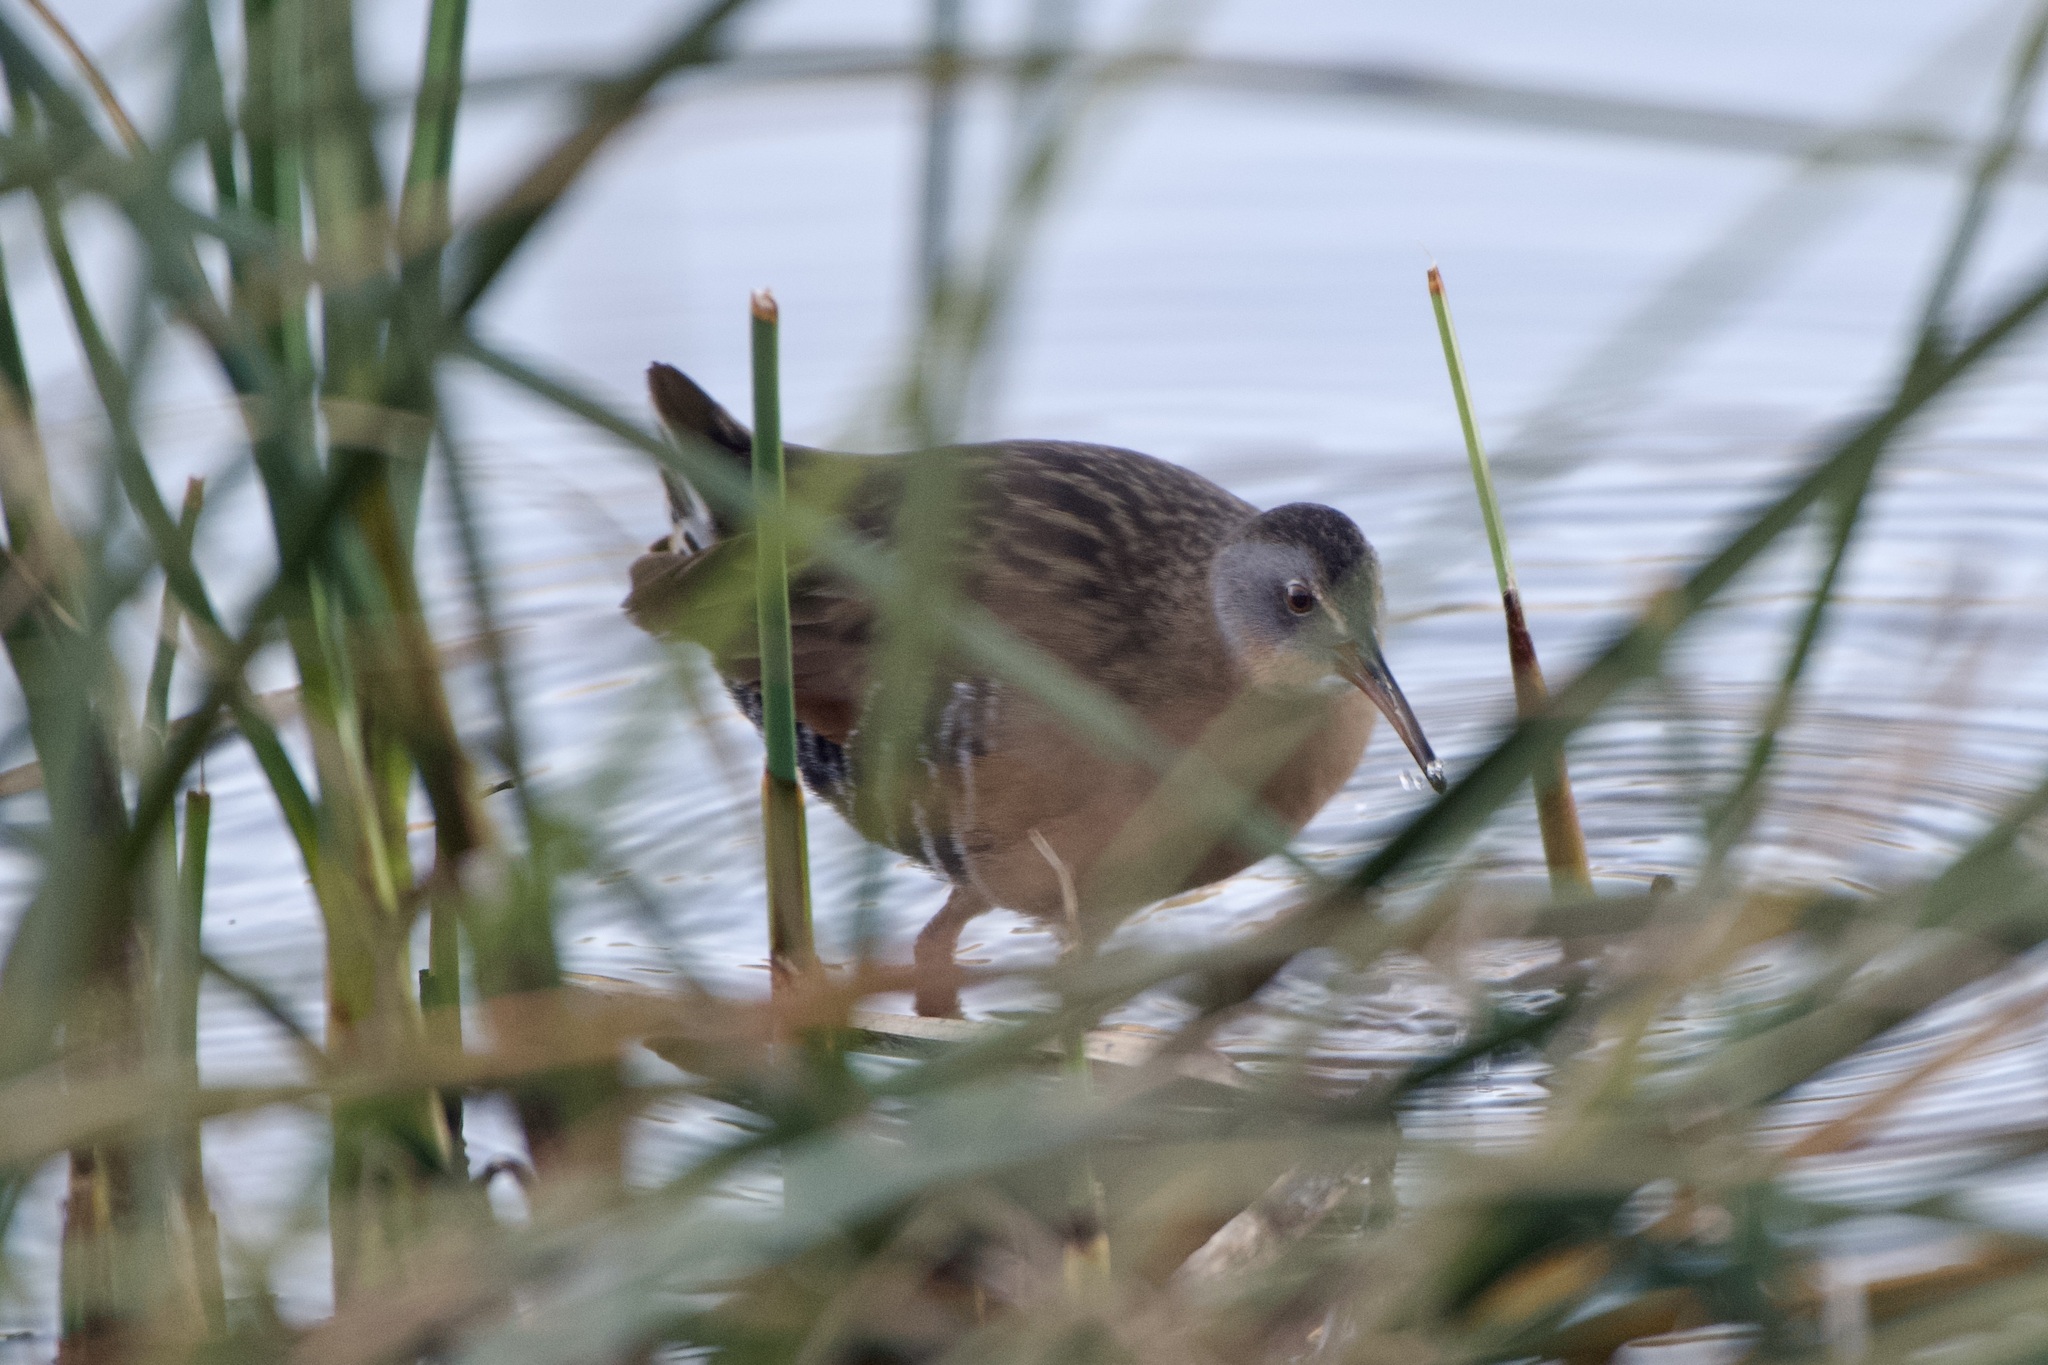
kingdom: Animalia
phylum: Chordata
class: Aves
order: Gruiformes
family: Rallidae
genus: Rallus
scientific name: Rallus limicola
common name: Virginia rail
